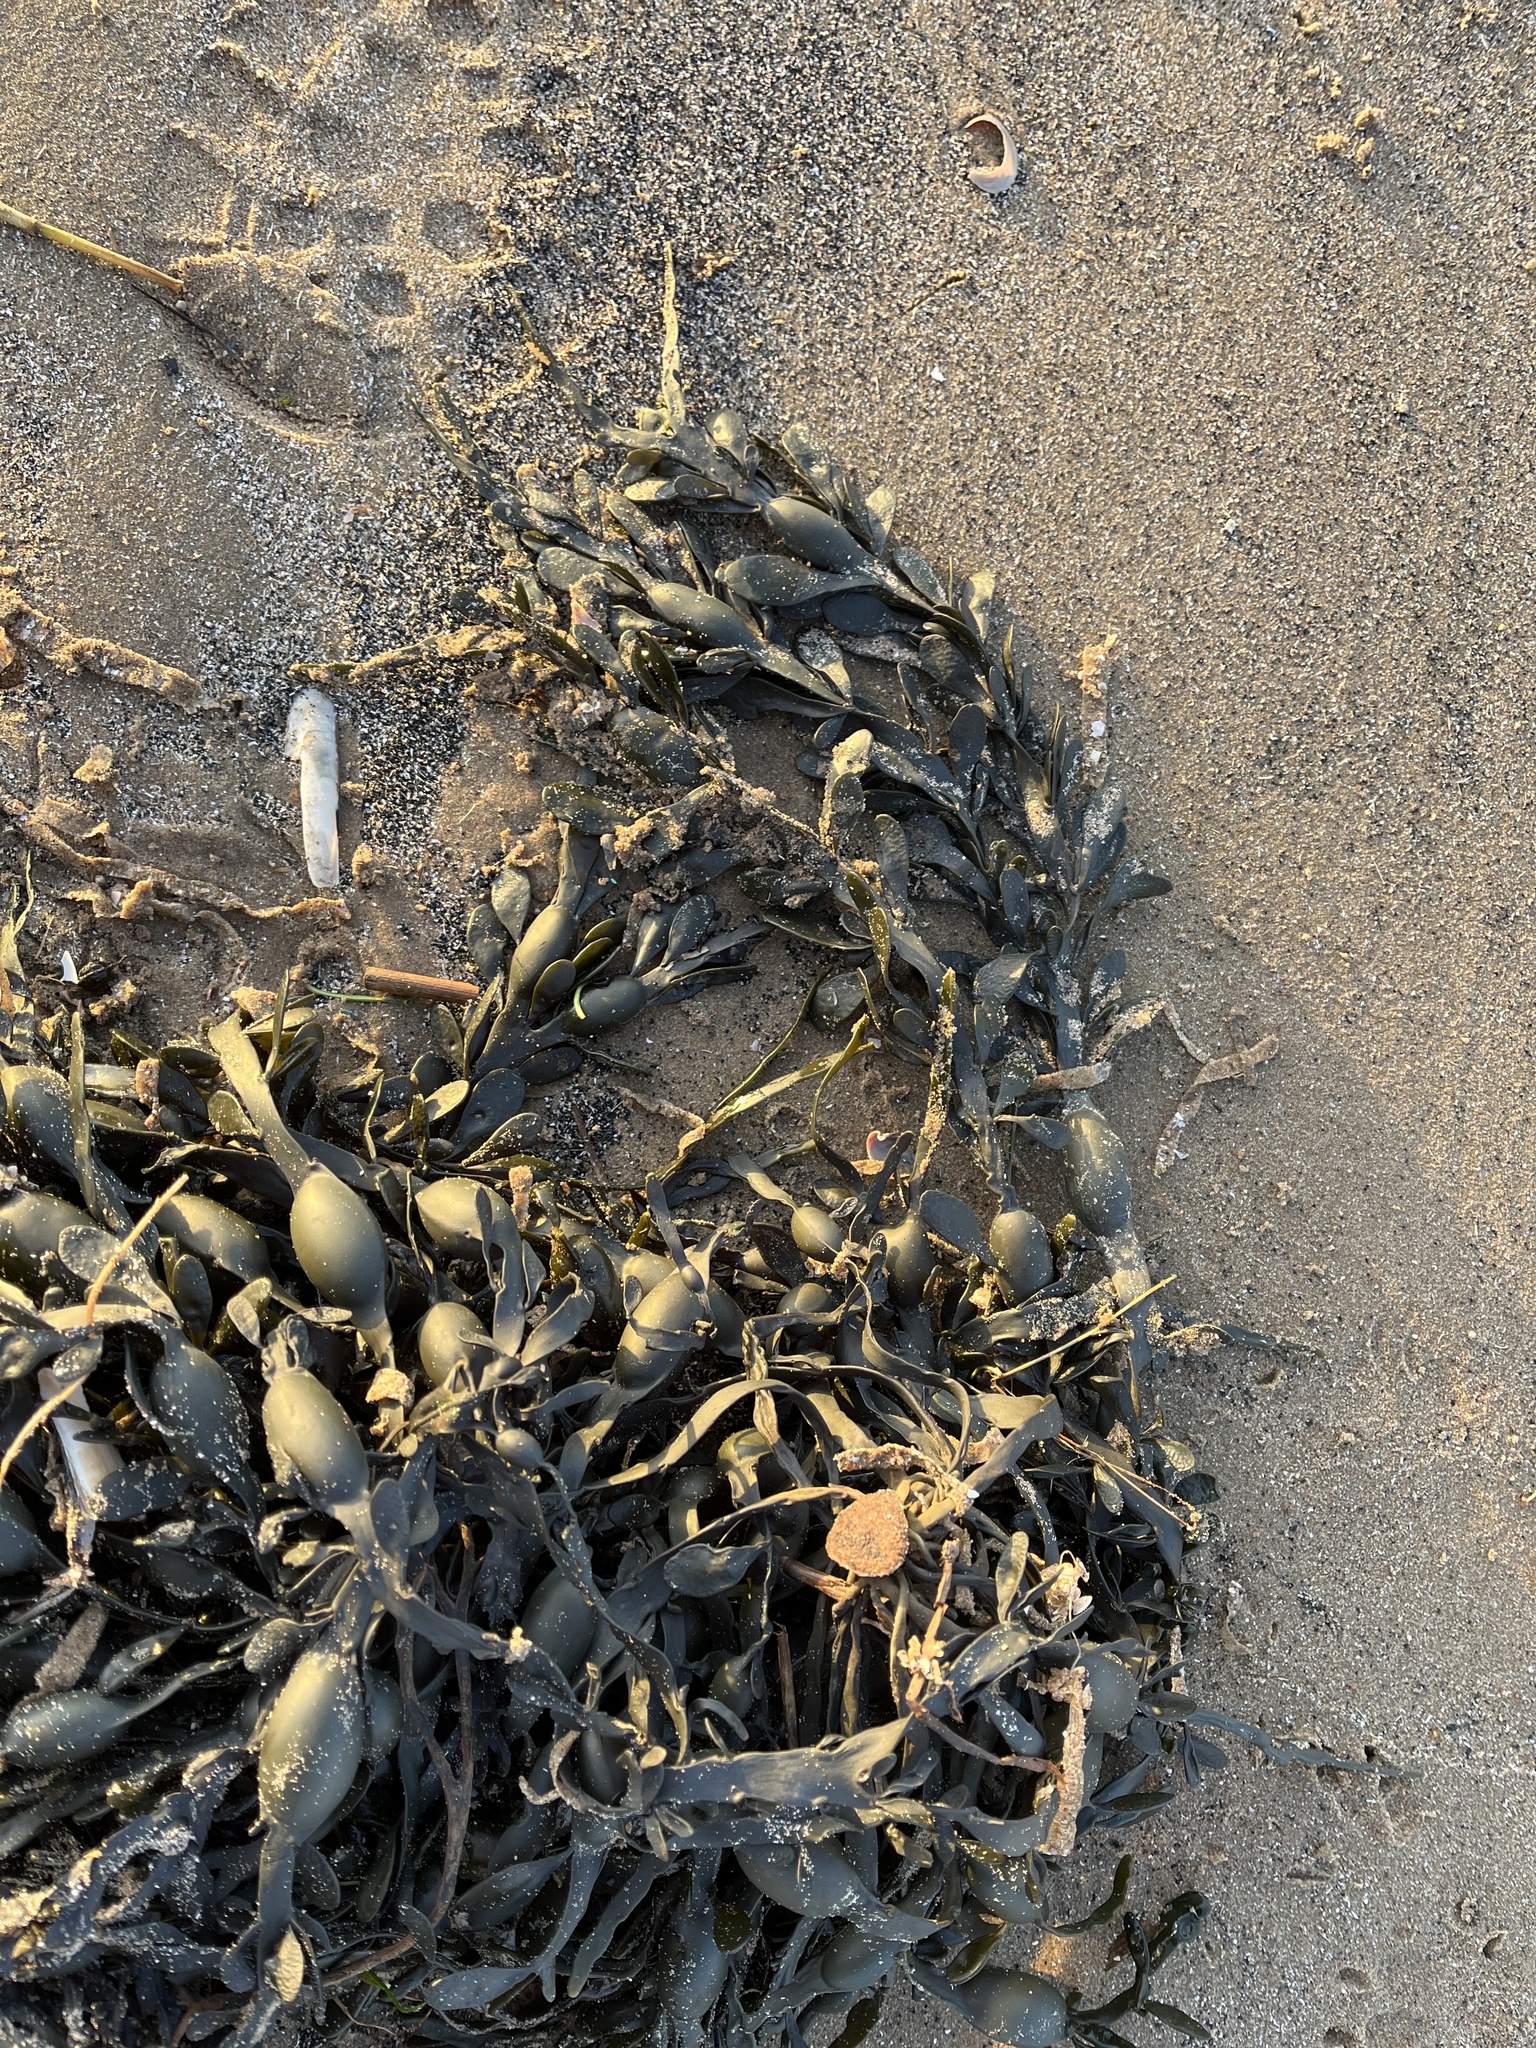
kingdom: Chromista
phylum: Ochrophyta
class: Phaeophyceae
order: Fucales
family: Fucaceae
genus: Ascophyllum
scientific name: Ascophyllum nodosum
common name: Knotted wrack
